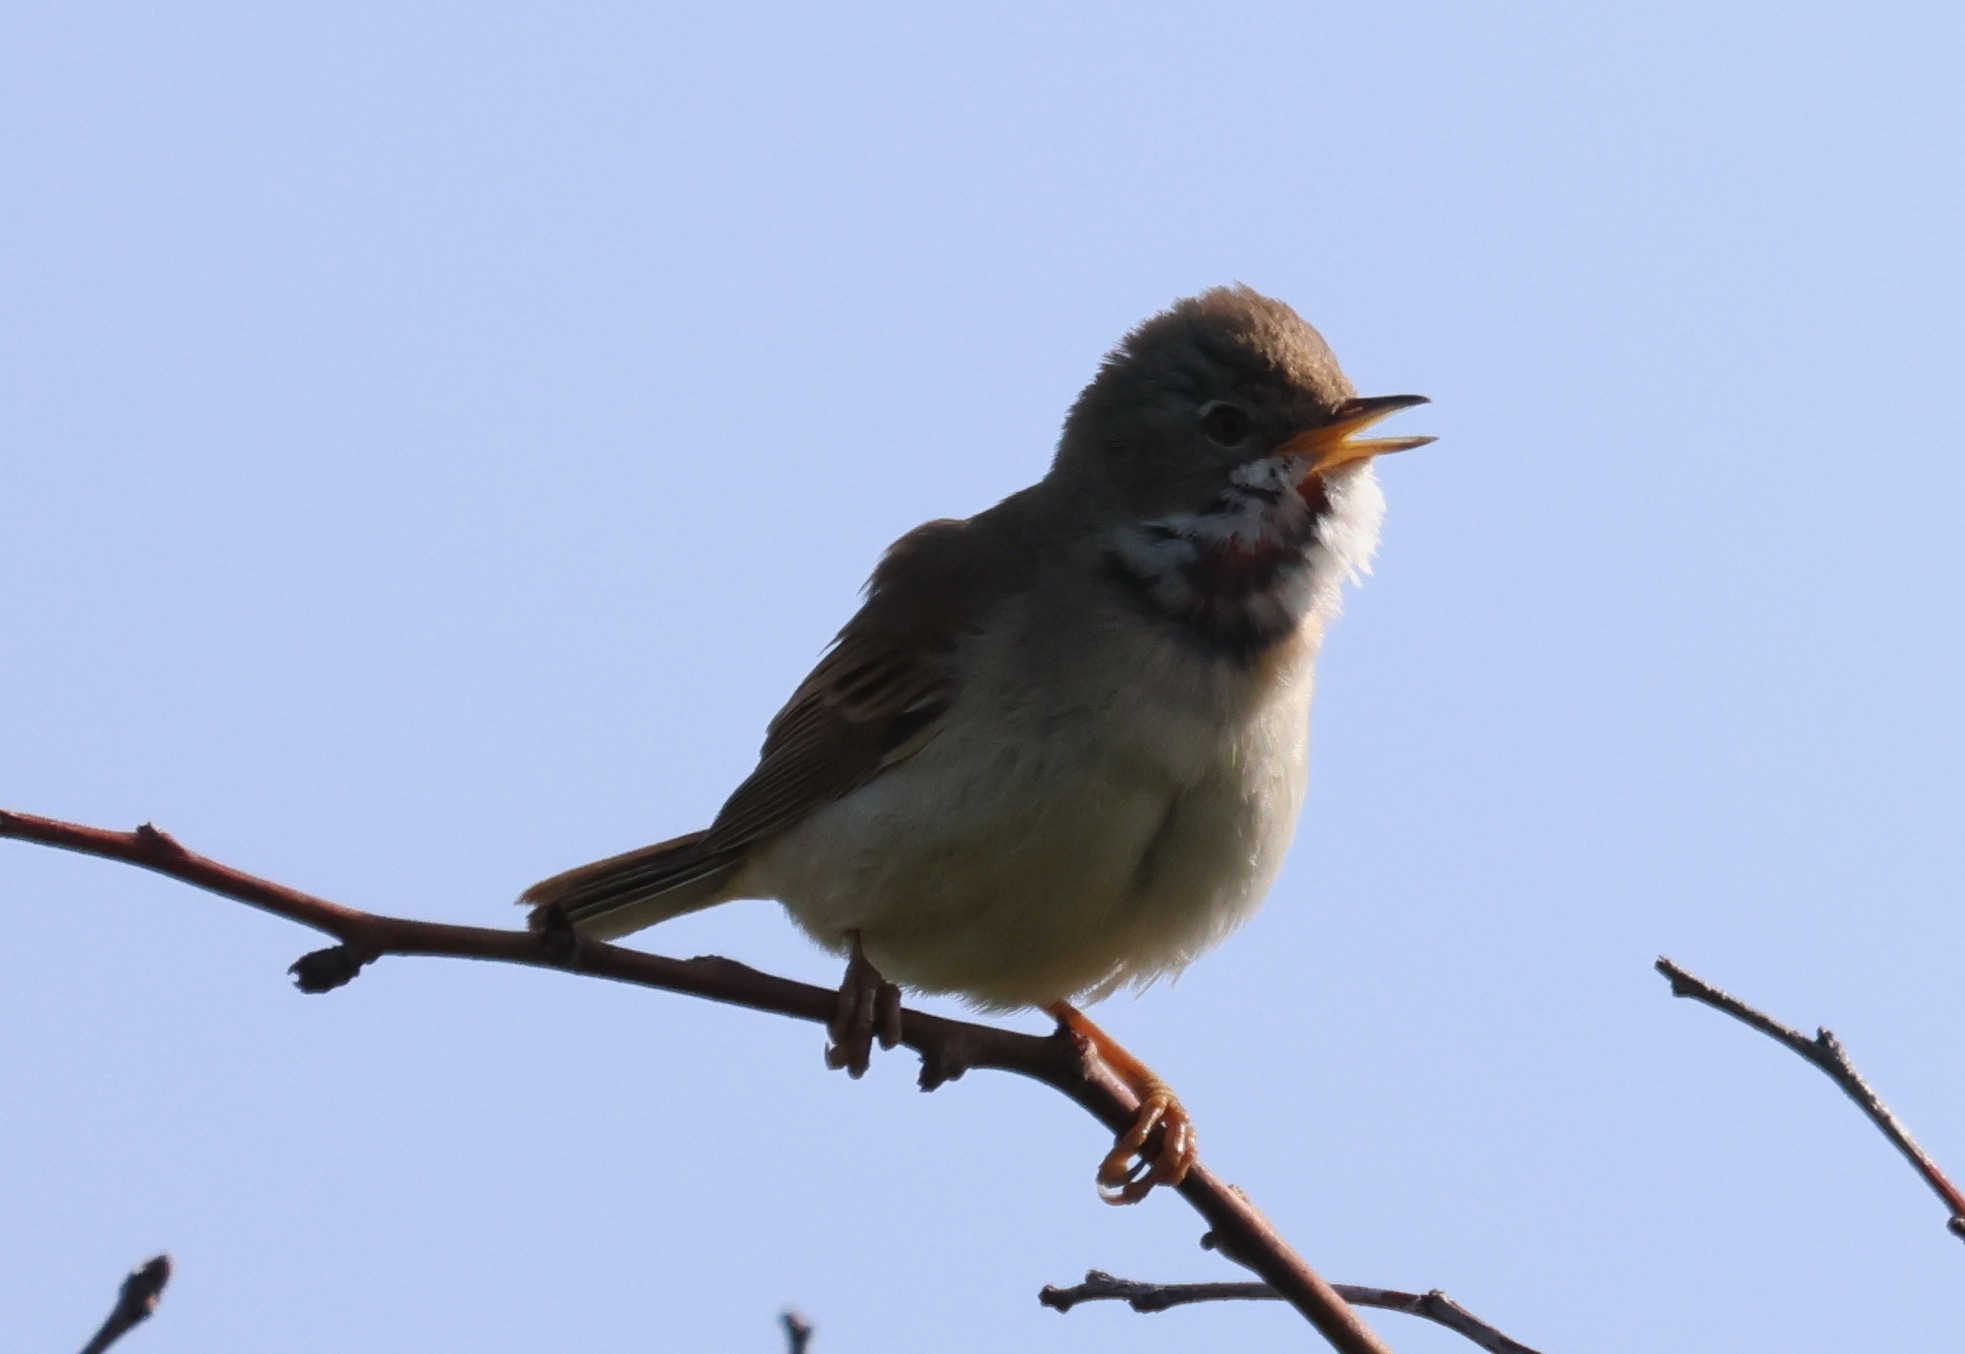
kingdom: Animalia
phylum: Chordata
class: Aves
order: Passeriformes
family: Sylviidae
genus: Sylvia
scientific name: Sylvia communis
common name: Common whitethroat
